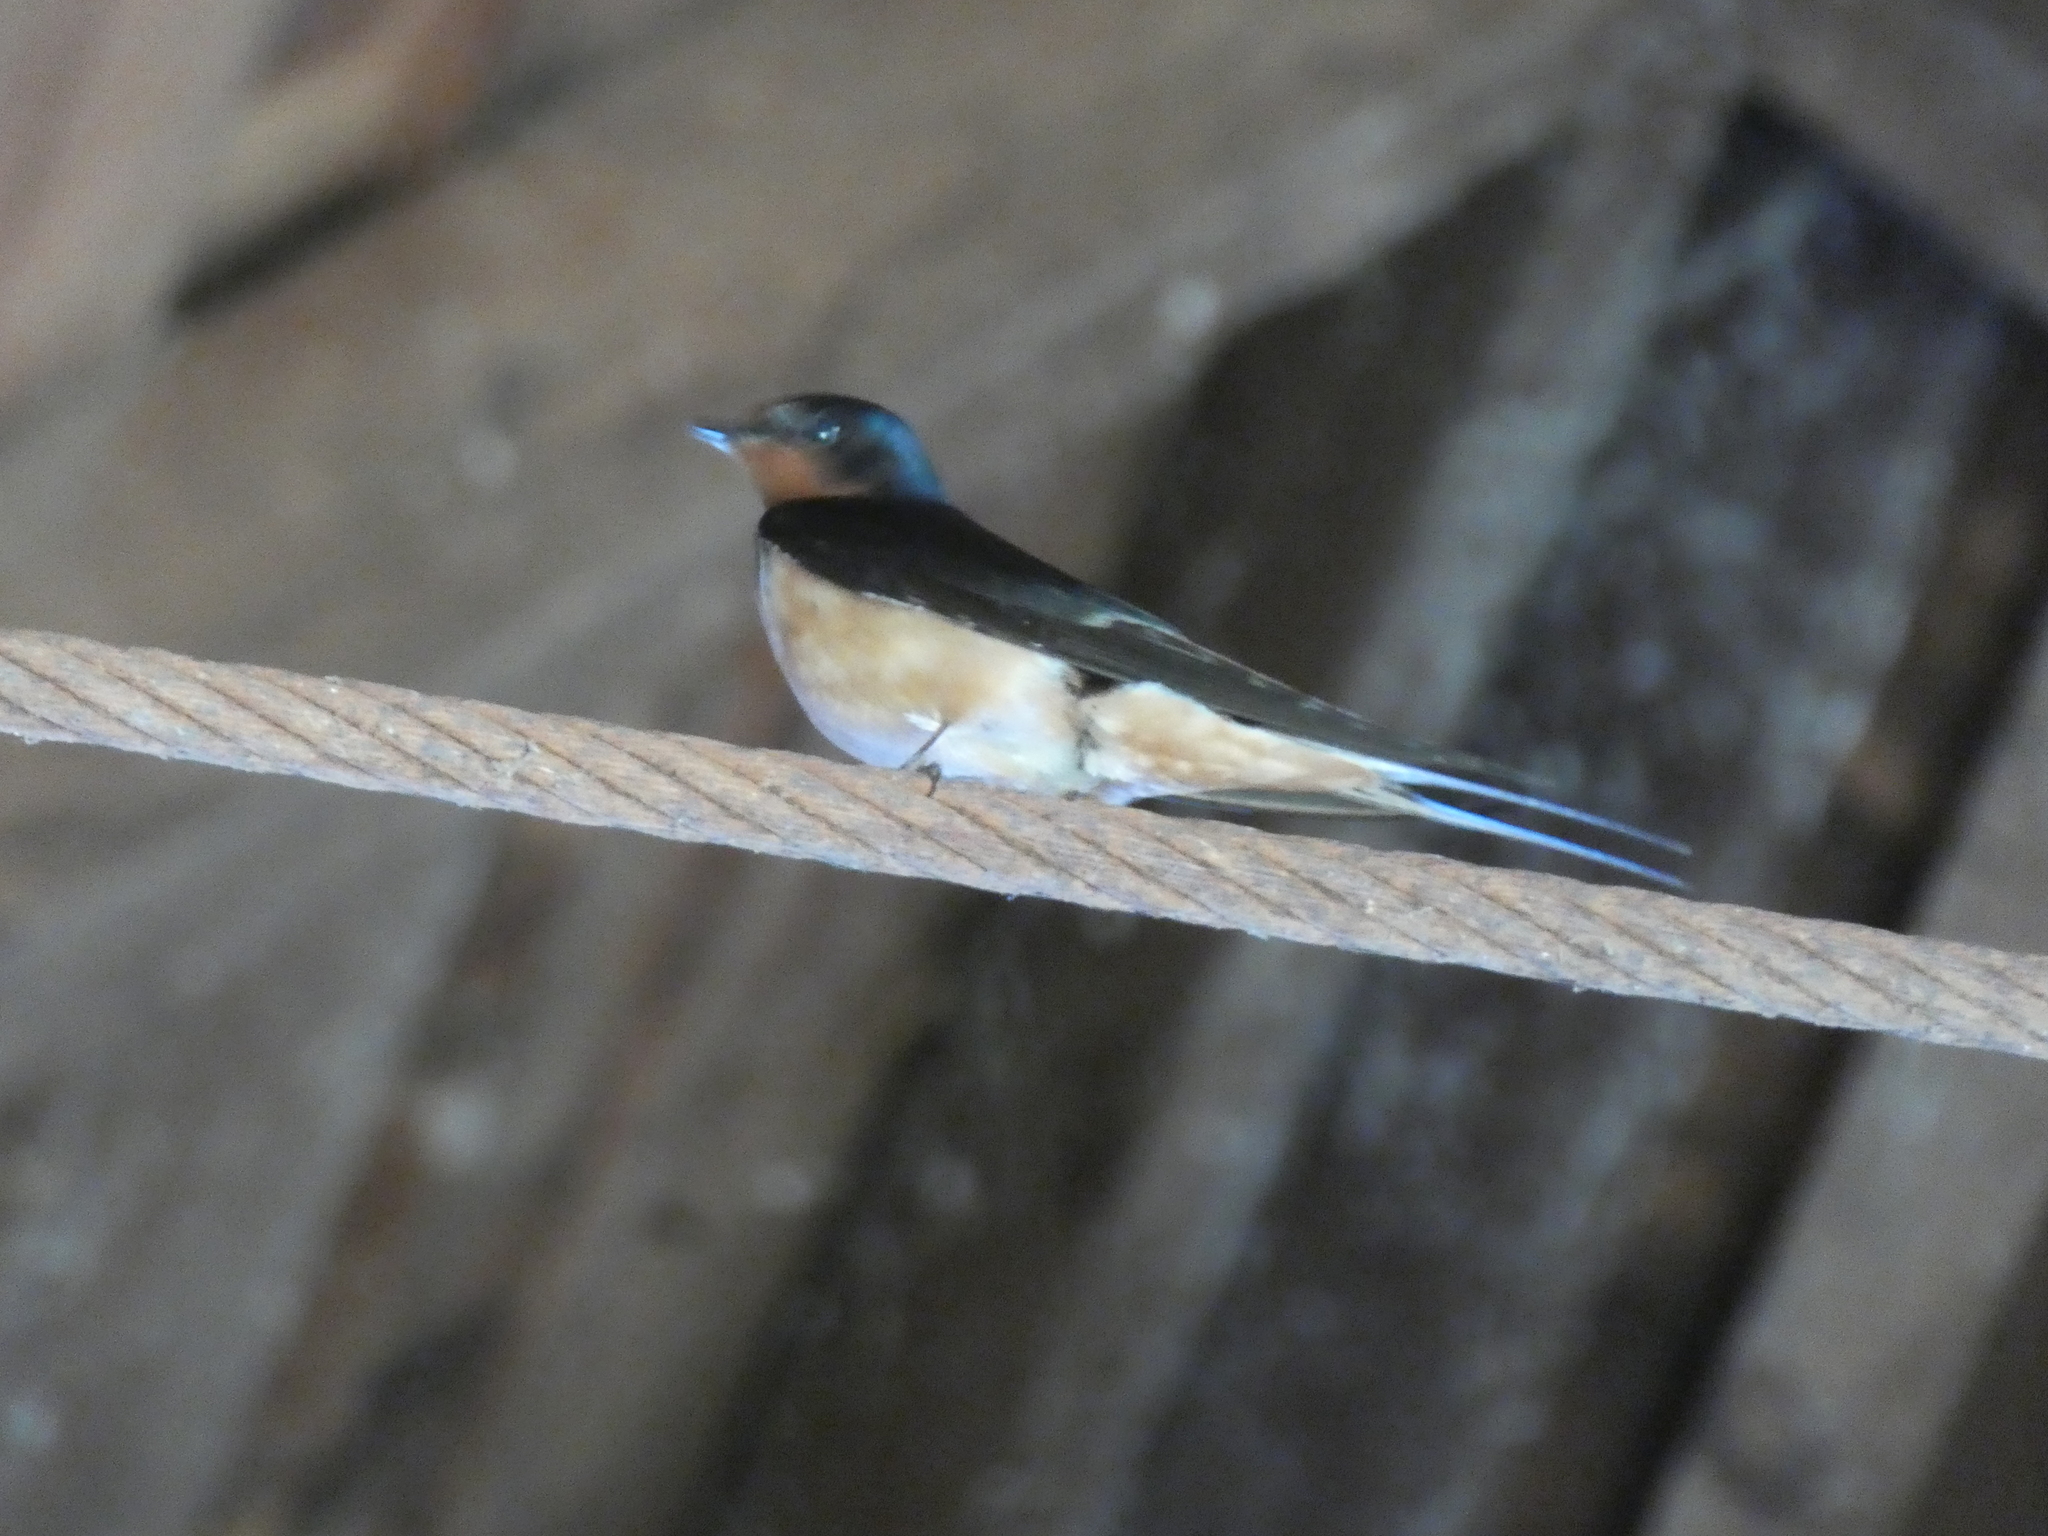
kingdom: Animalia
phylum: Chordata
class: Aves
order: Passeriformes
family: Hirundinidae
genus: Hirundo
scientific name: Hirundo rustica
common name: Barn swallow
